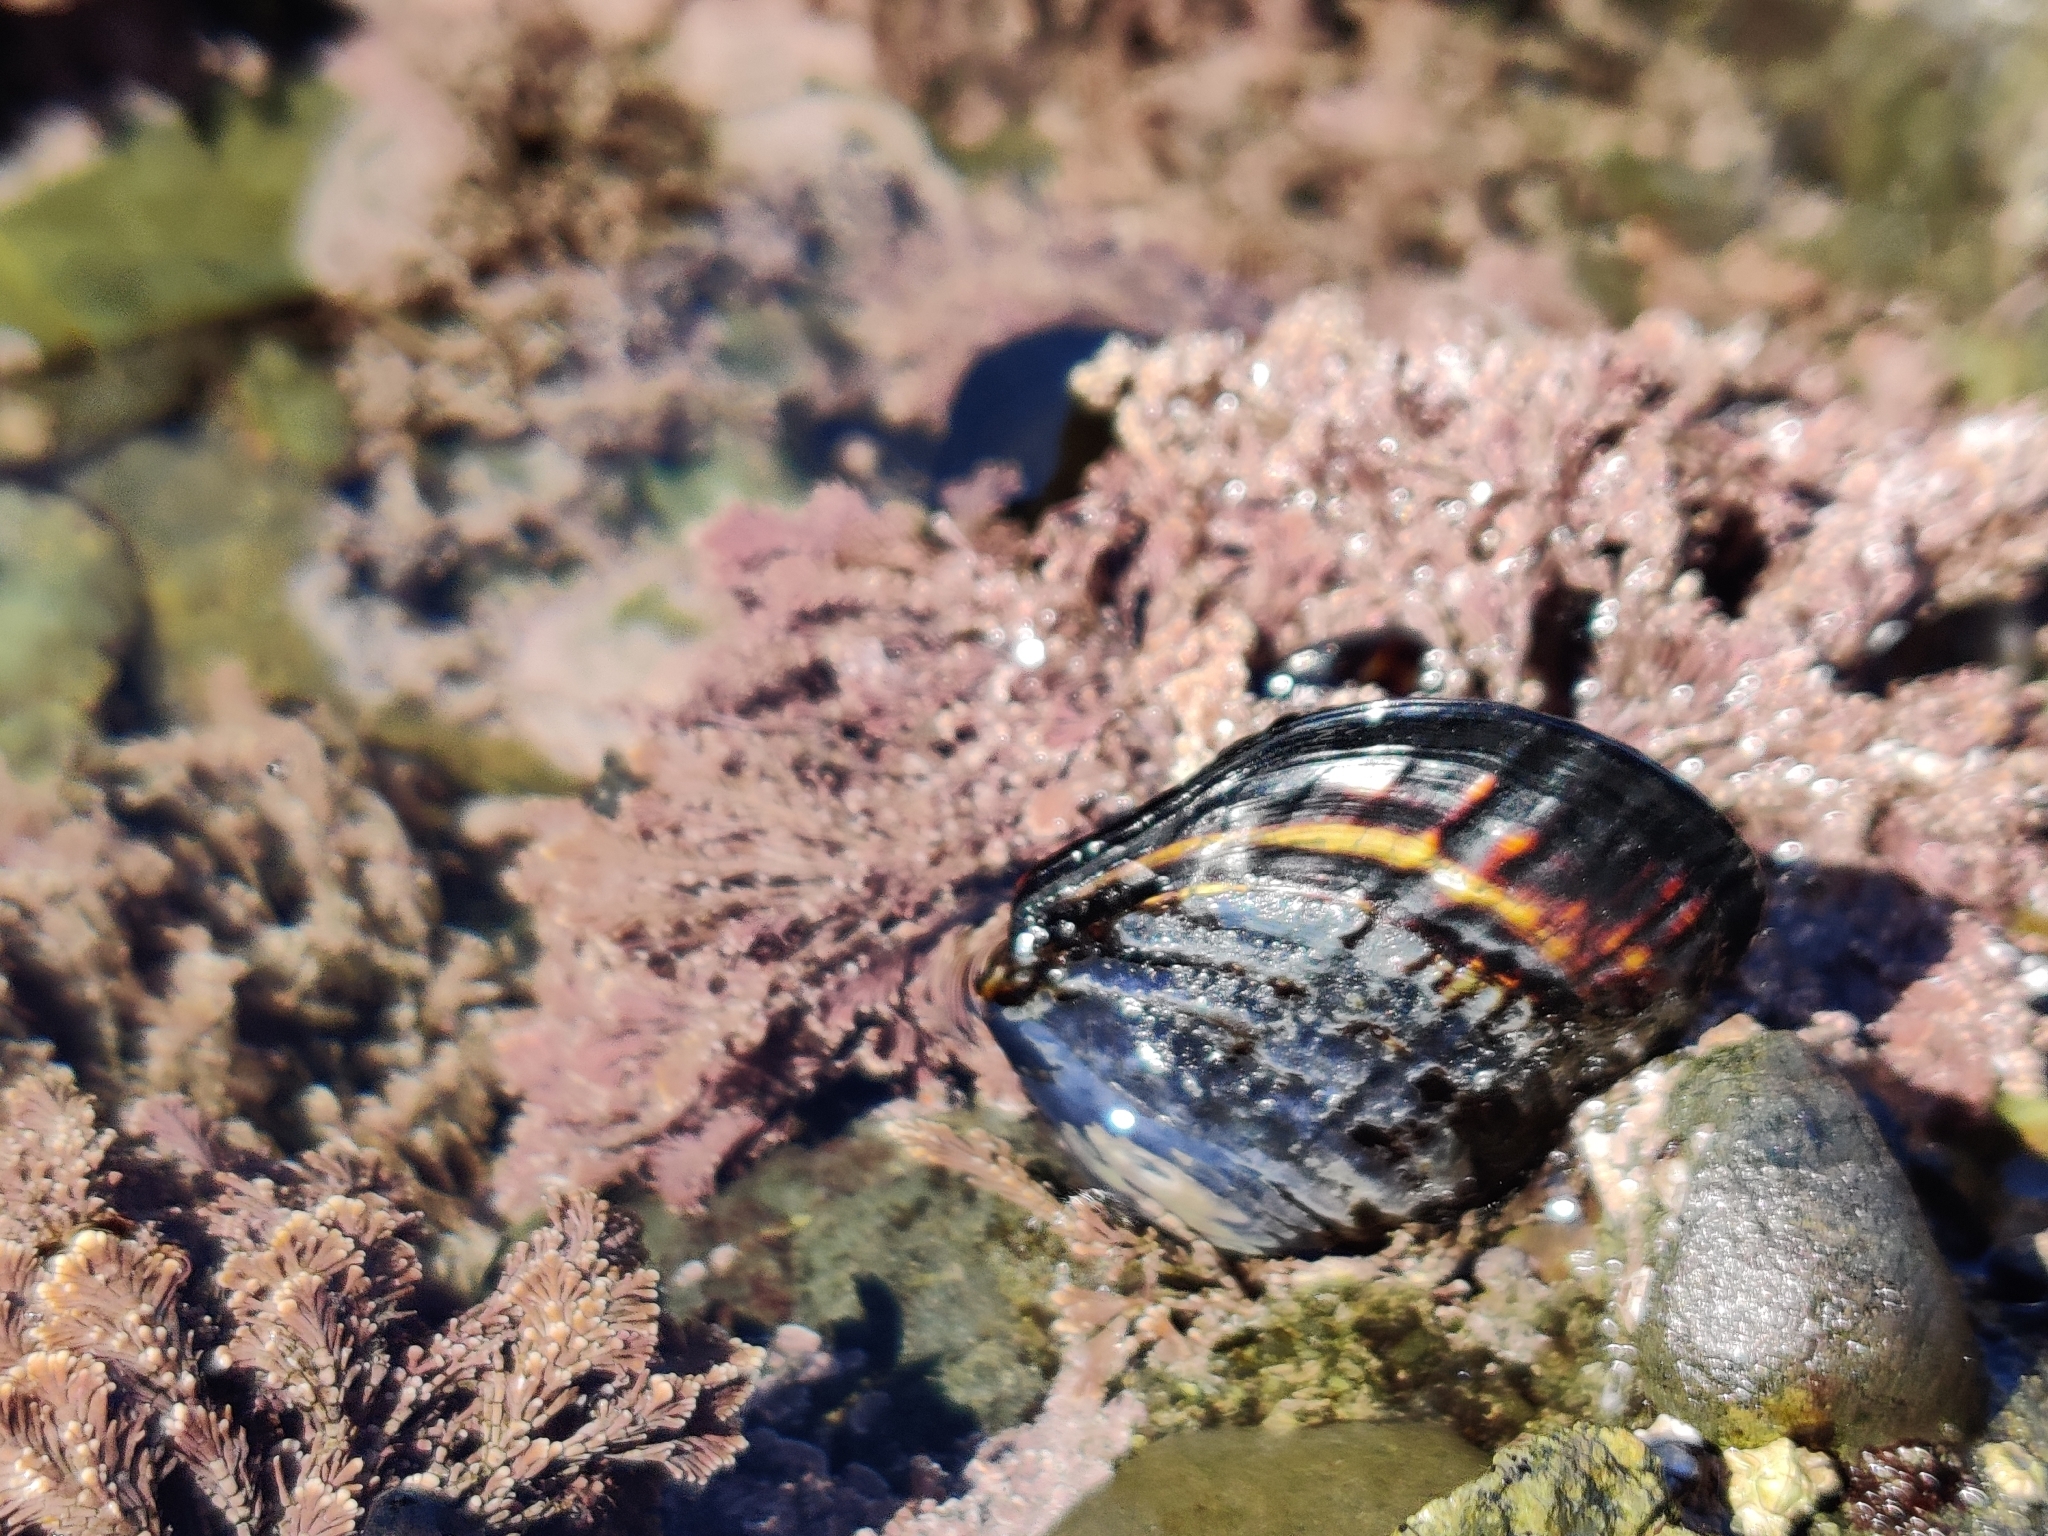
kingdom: Animalia
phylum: Mollusca
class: Bivalvia
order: Mytilida
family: Mytilidae
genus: Mytilus
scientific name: Mytilus californianus
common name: California mussel
